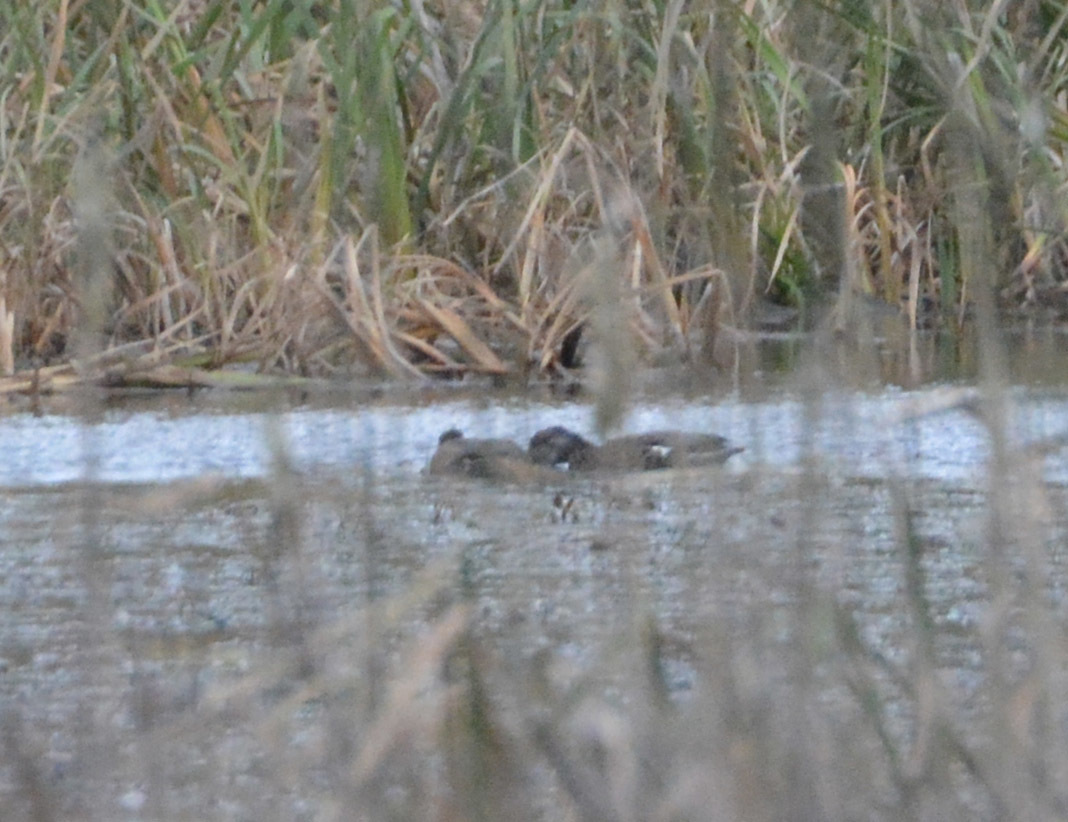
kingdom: Animalia
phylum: Chordata
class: Aves
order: Anseriformes
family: Anatidae
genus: Mareca
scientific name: Mareca strepera
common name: Gadwall
